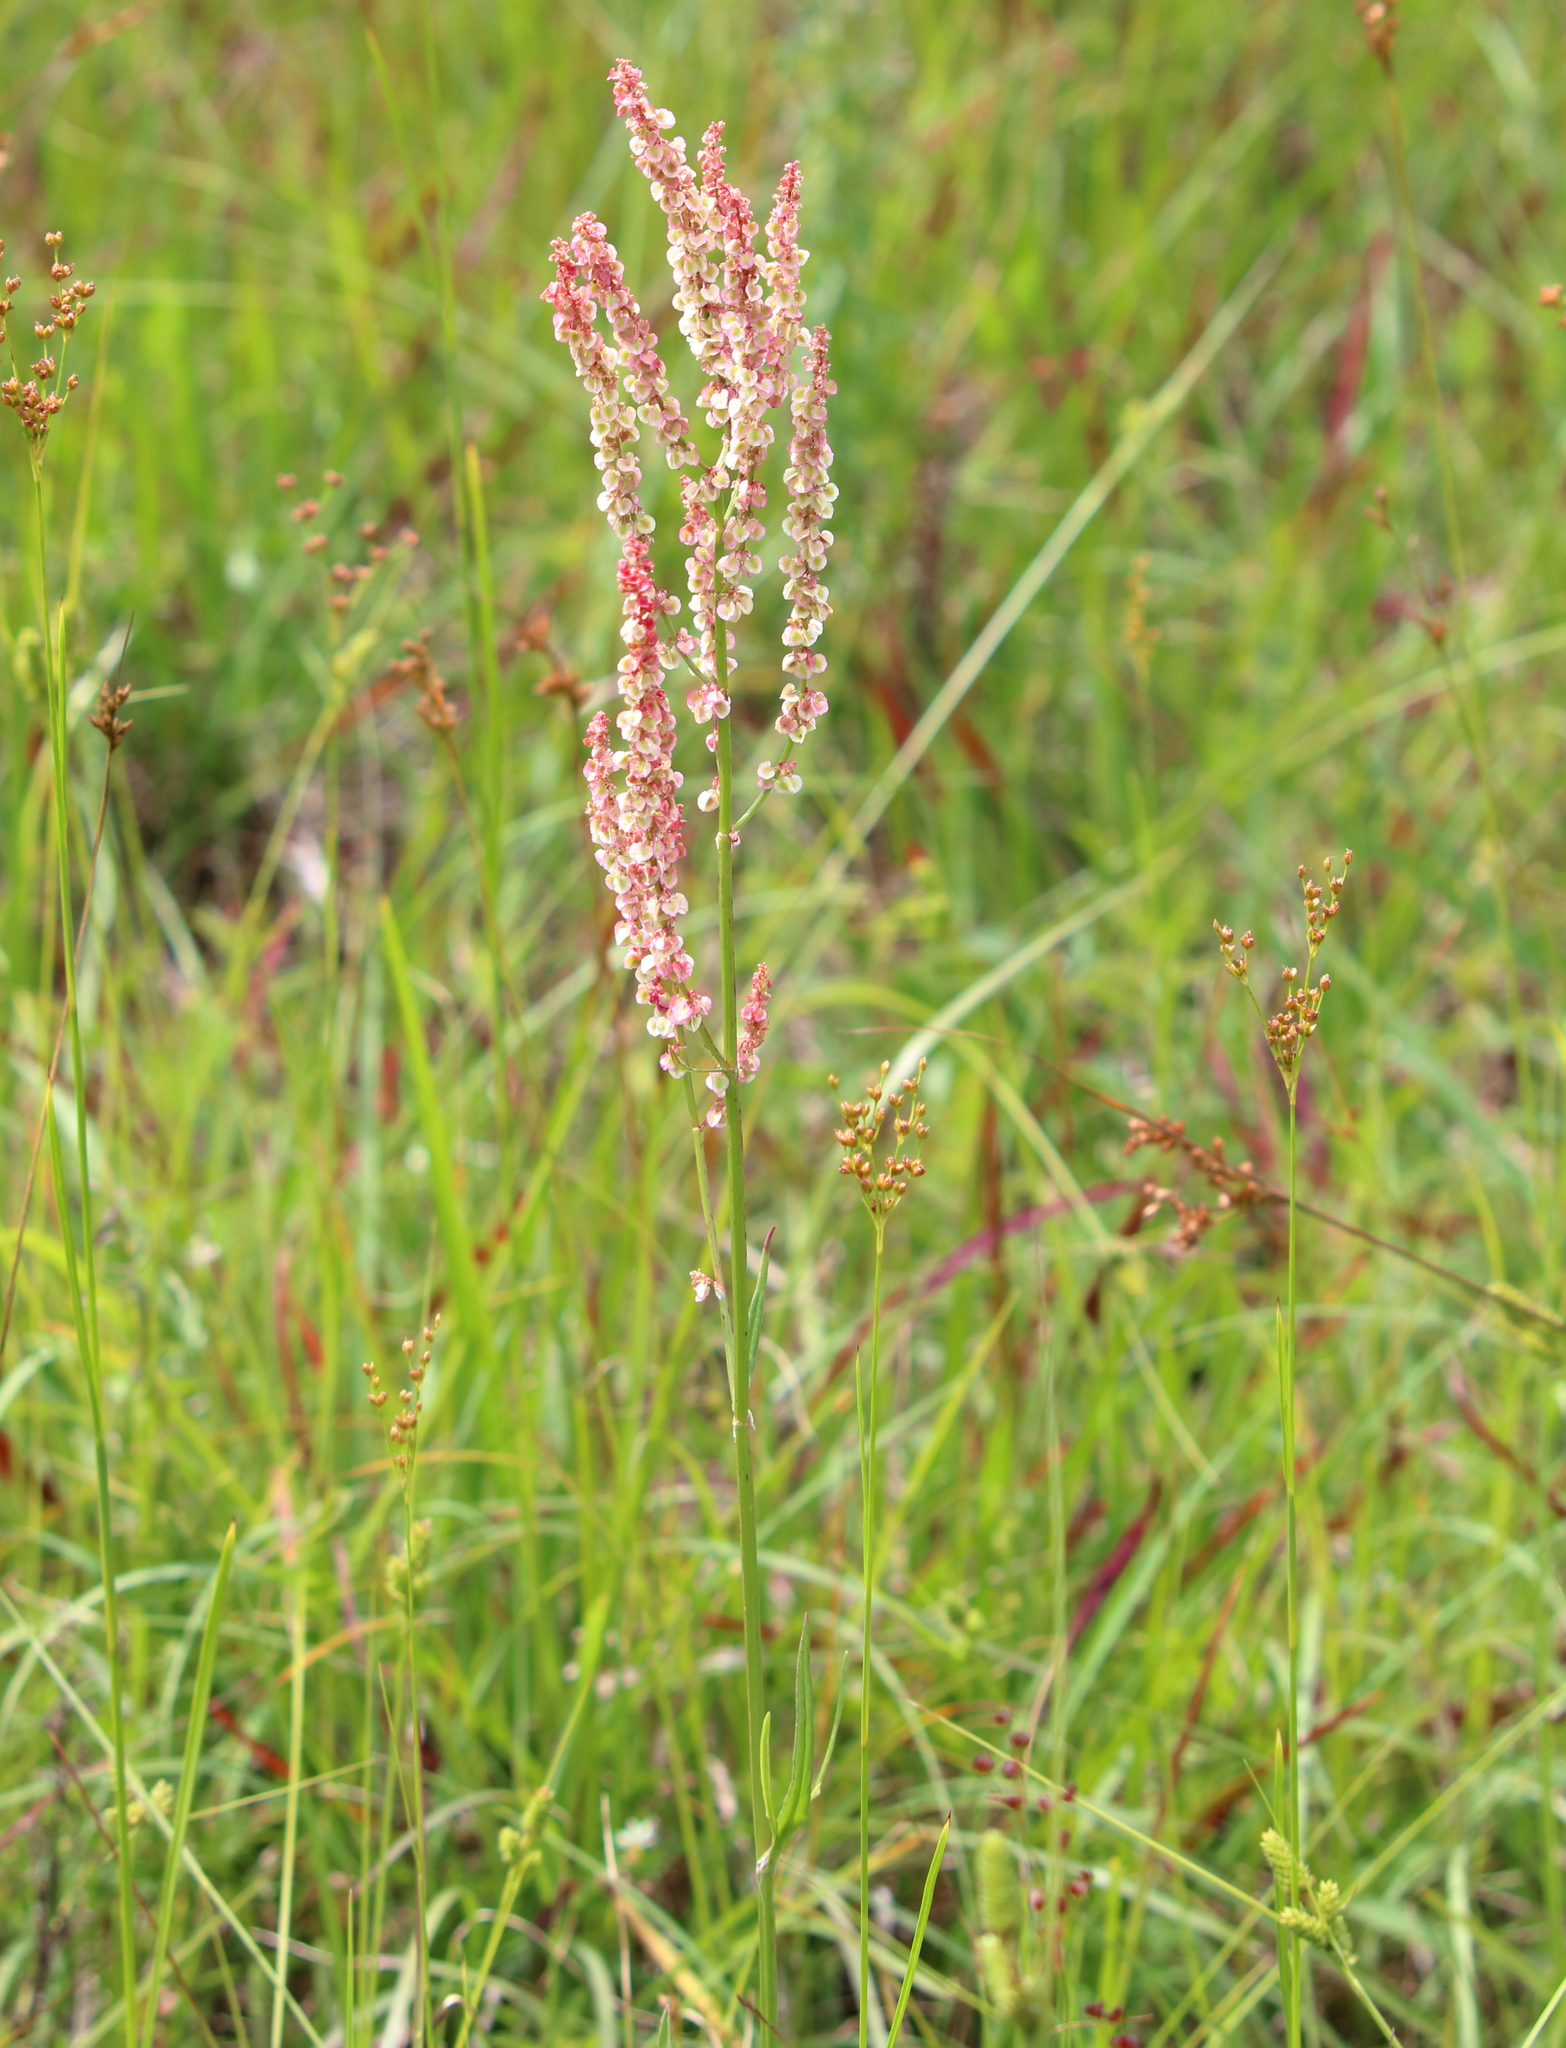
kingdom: Plantae
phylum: Tracheophyta
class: Magnoliopsida
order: Caryophyllales
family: Polygonaceae
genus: Rumex
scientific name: Rumex hastatulus
